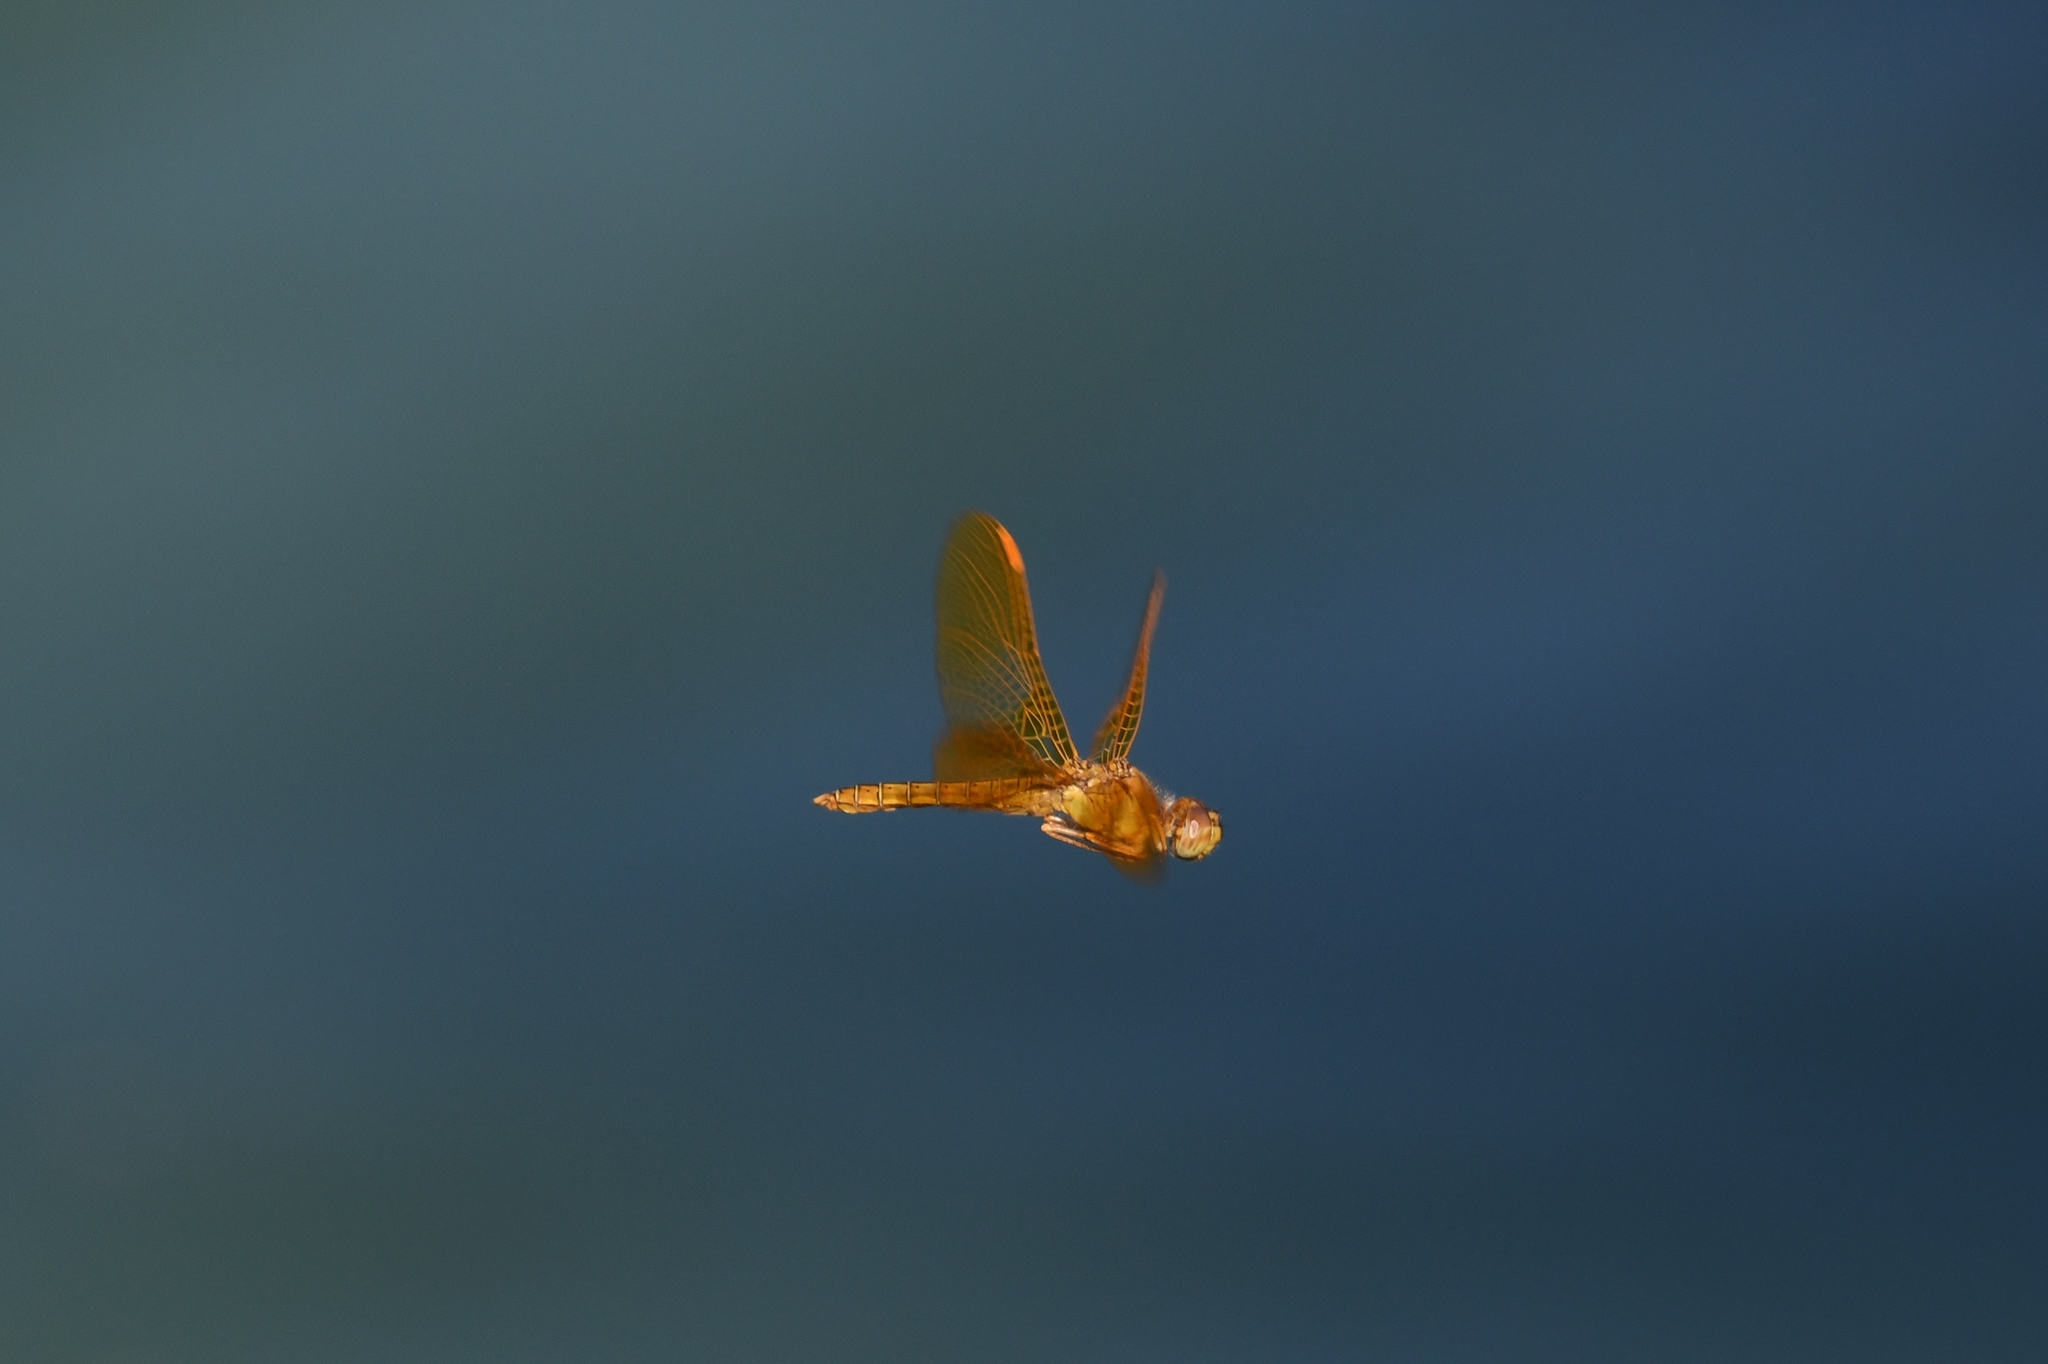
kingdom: Animalia
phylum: Arthropoda
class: Insecta
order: Odonata
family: Libellulidae
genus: Perithemis
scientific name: Perithemis intensa
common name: Mexican amberwing
